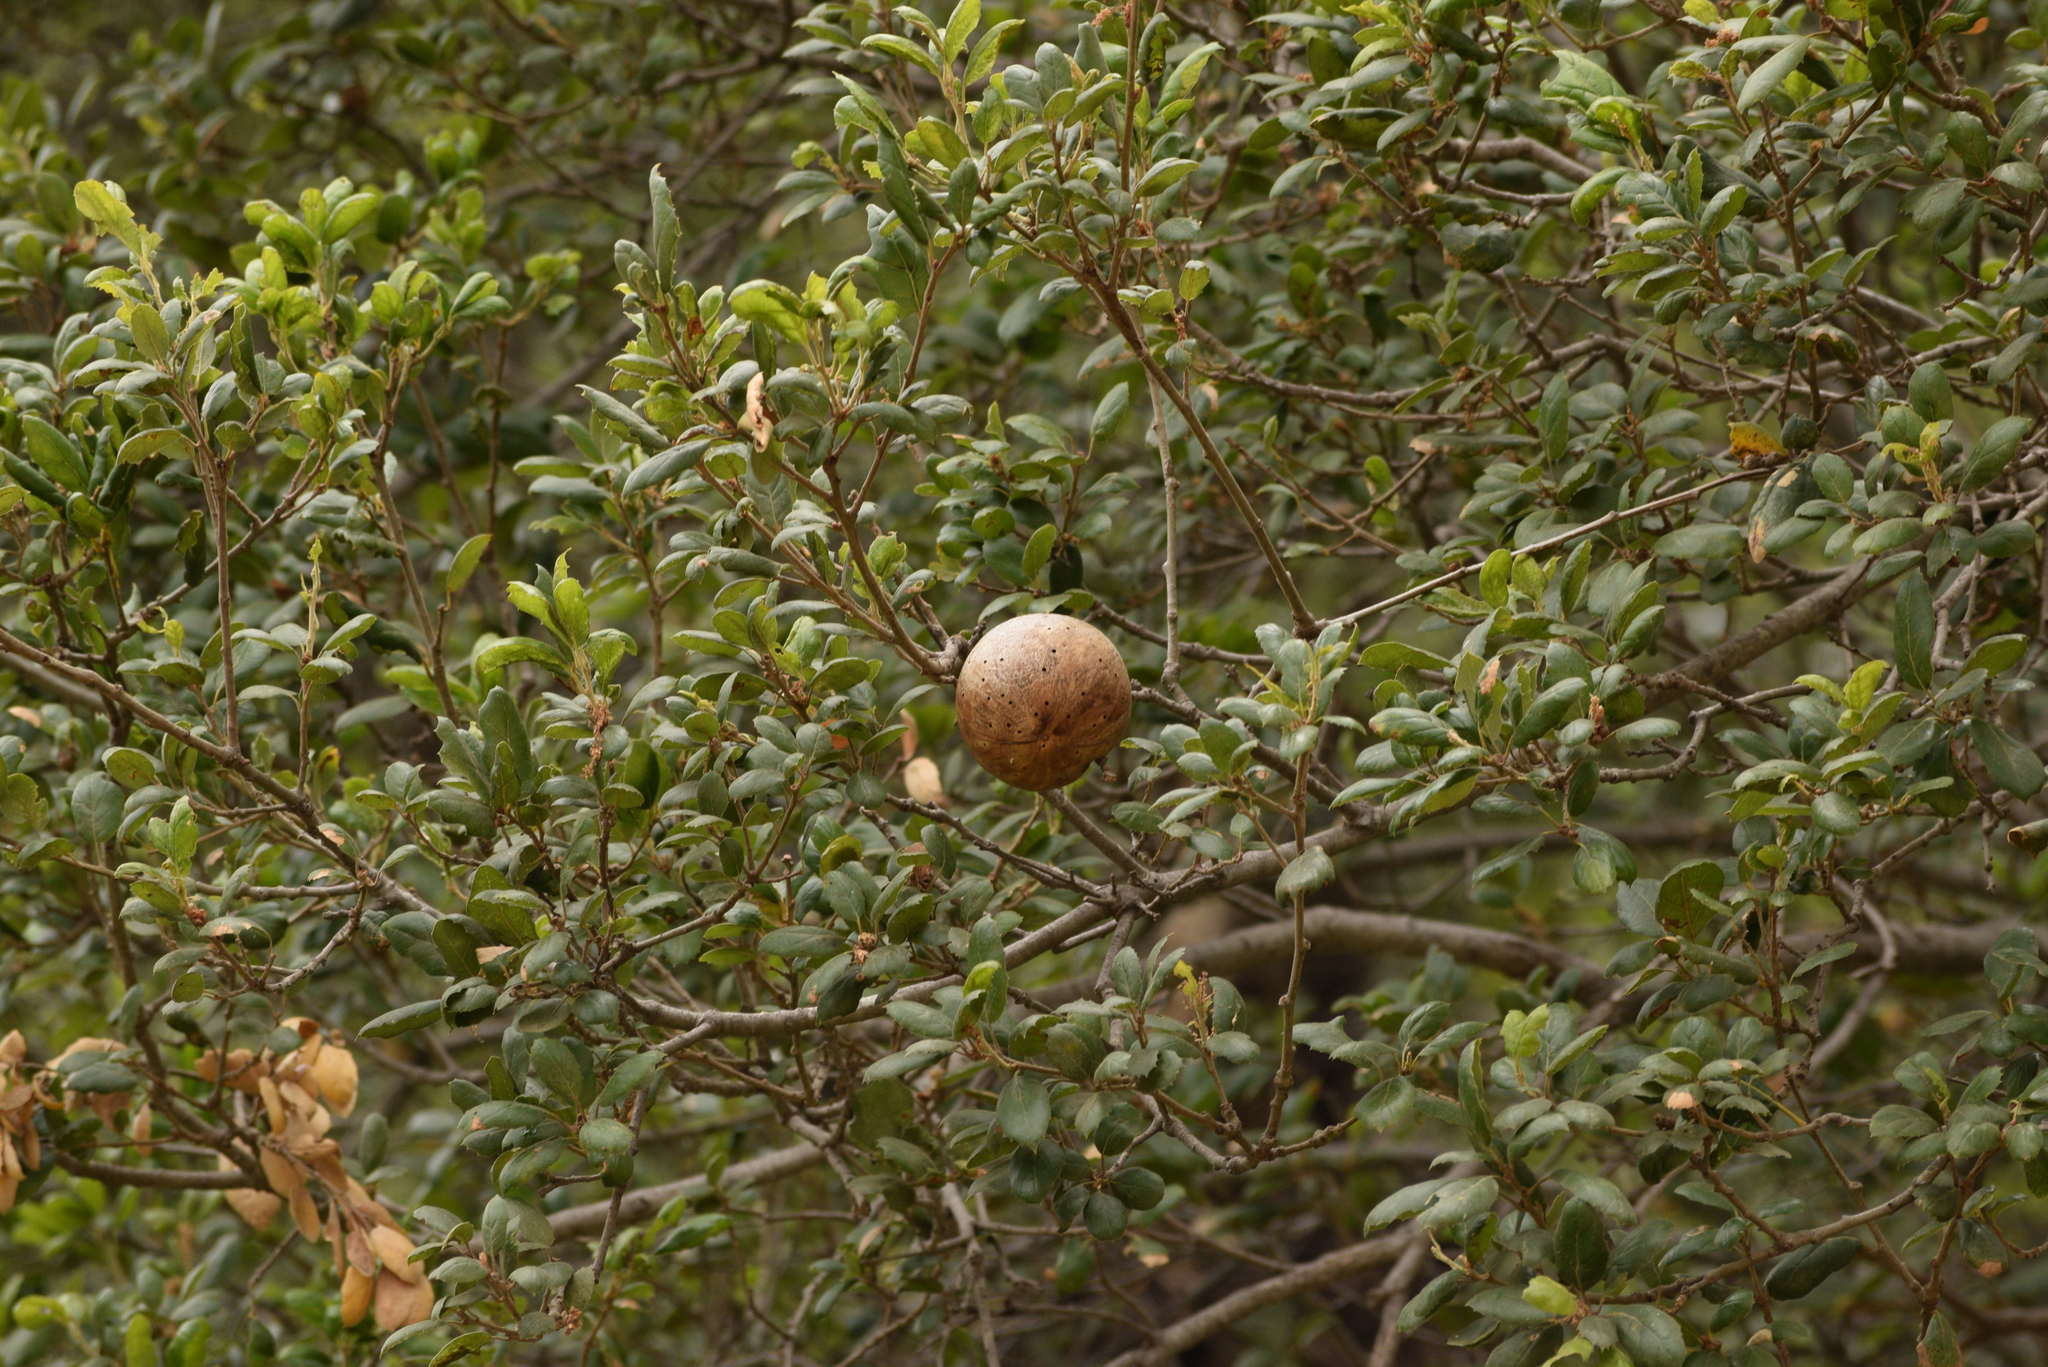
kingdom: Animalia
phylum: Arthropoda
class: Insecta
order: Hymenoptera
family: Cynipidae
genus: Amphibolips
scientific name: Amphibolips quercuspomiformis
